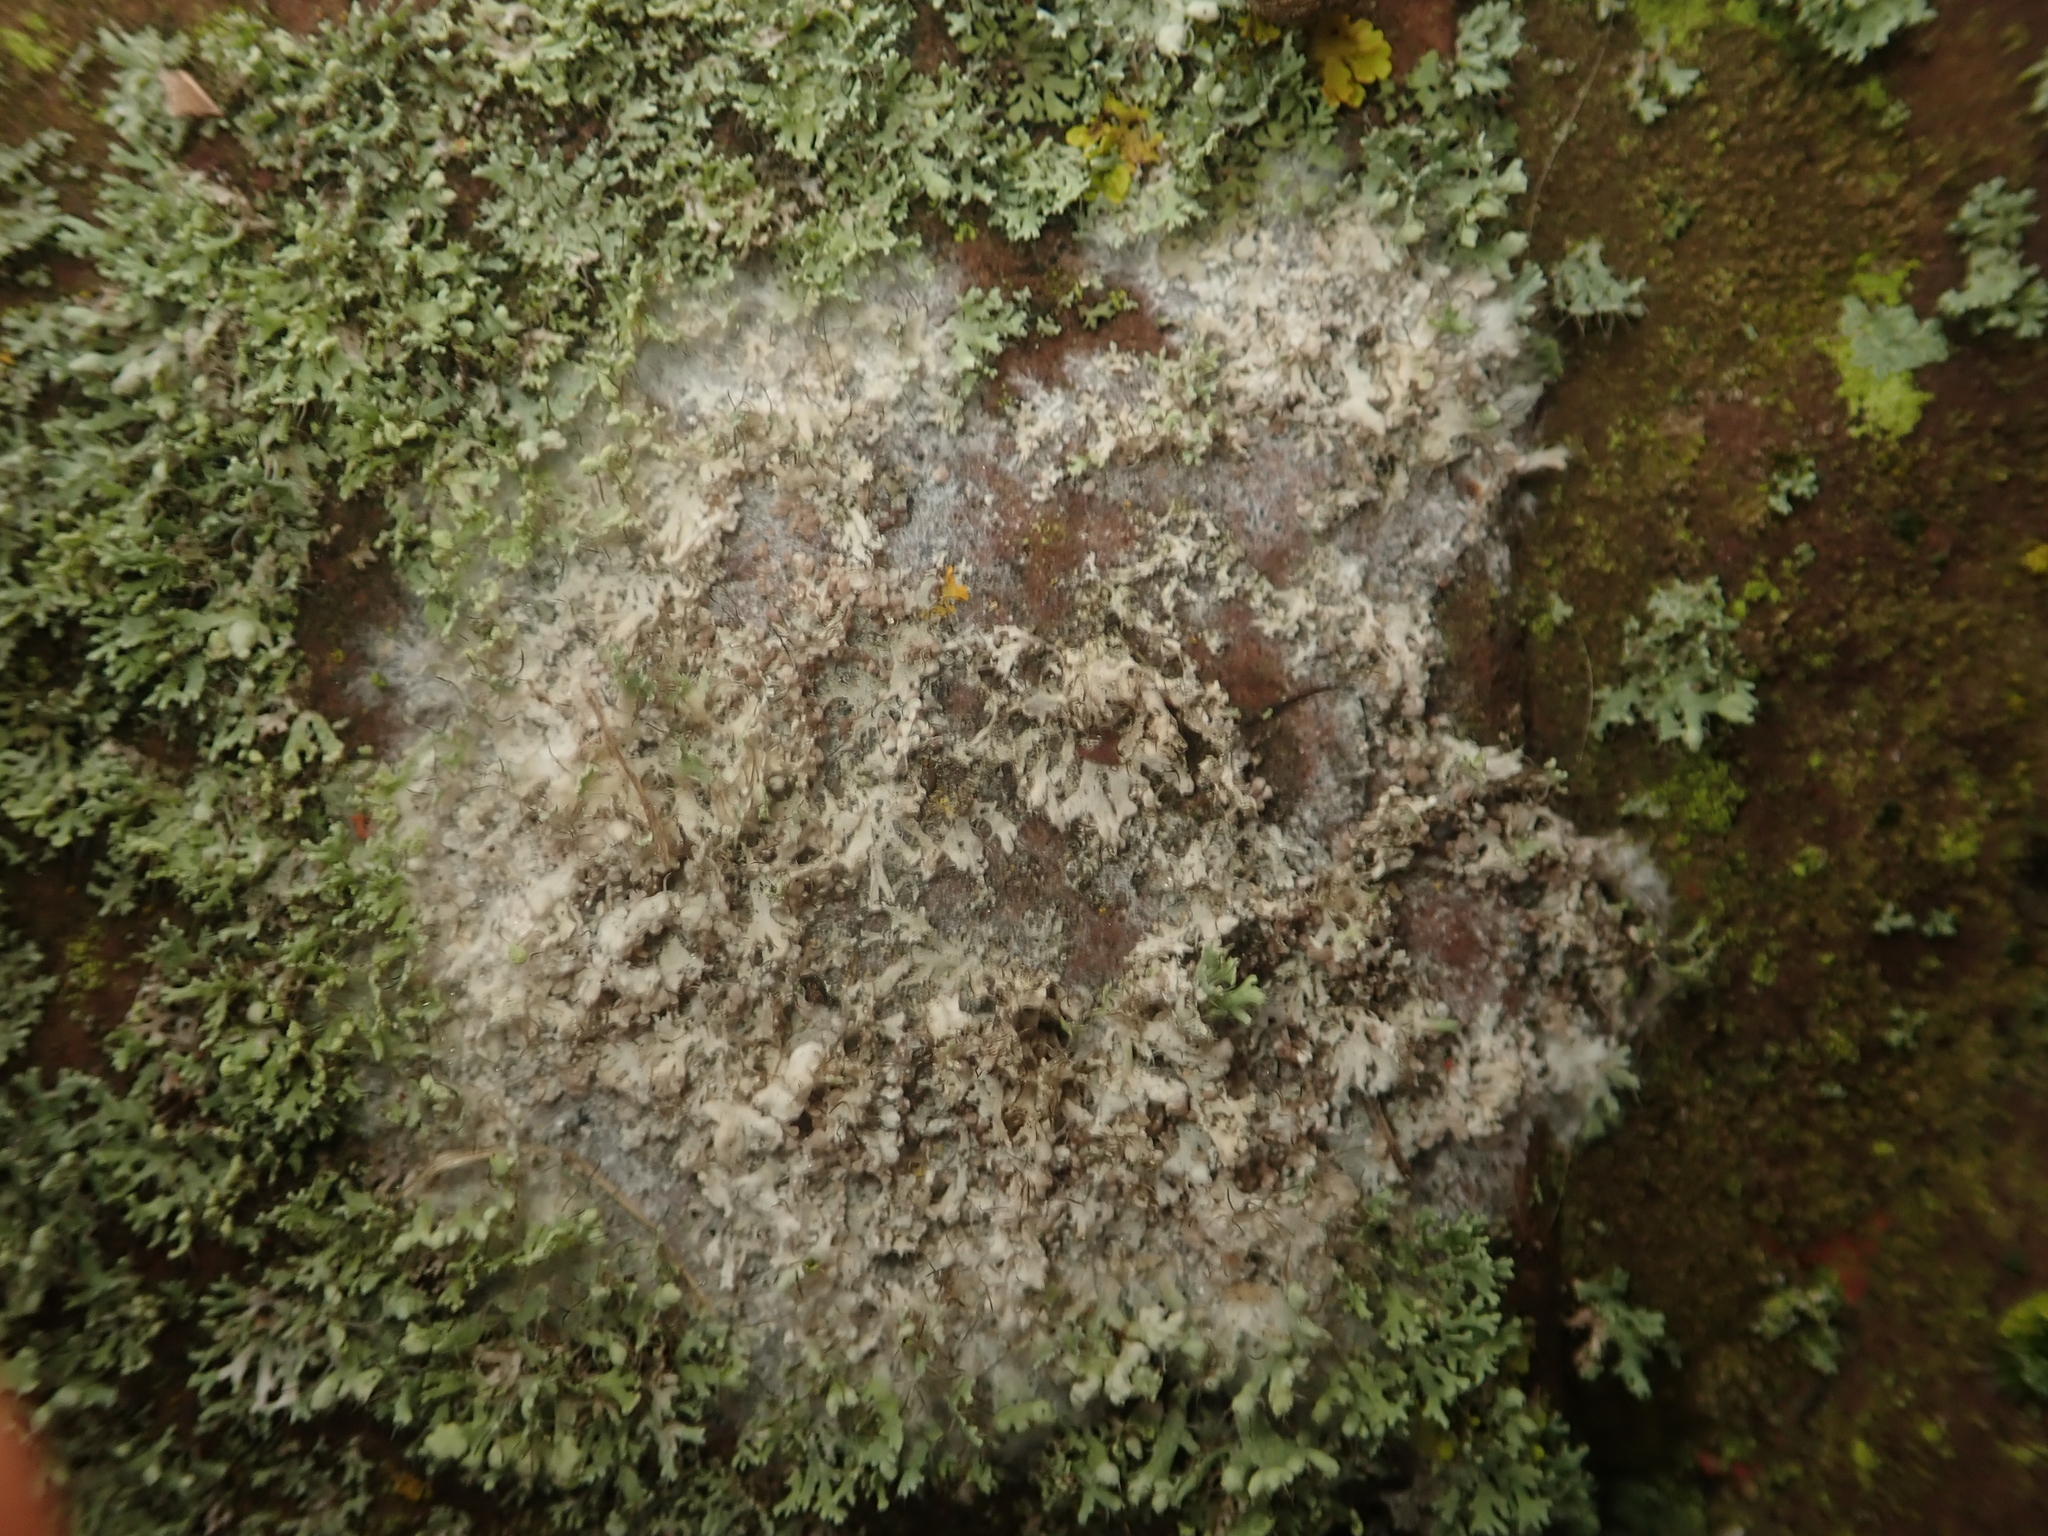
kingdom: Fungi
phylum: Basidiomycota
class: Agaricomycetes
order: Atheliales
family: Atheliaceae
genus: Athelia
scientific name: Athelia arachnoidea
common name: Candelabra duster
